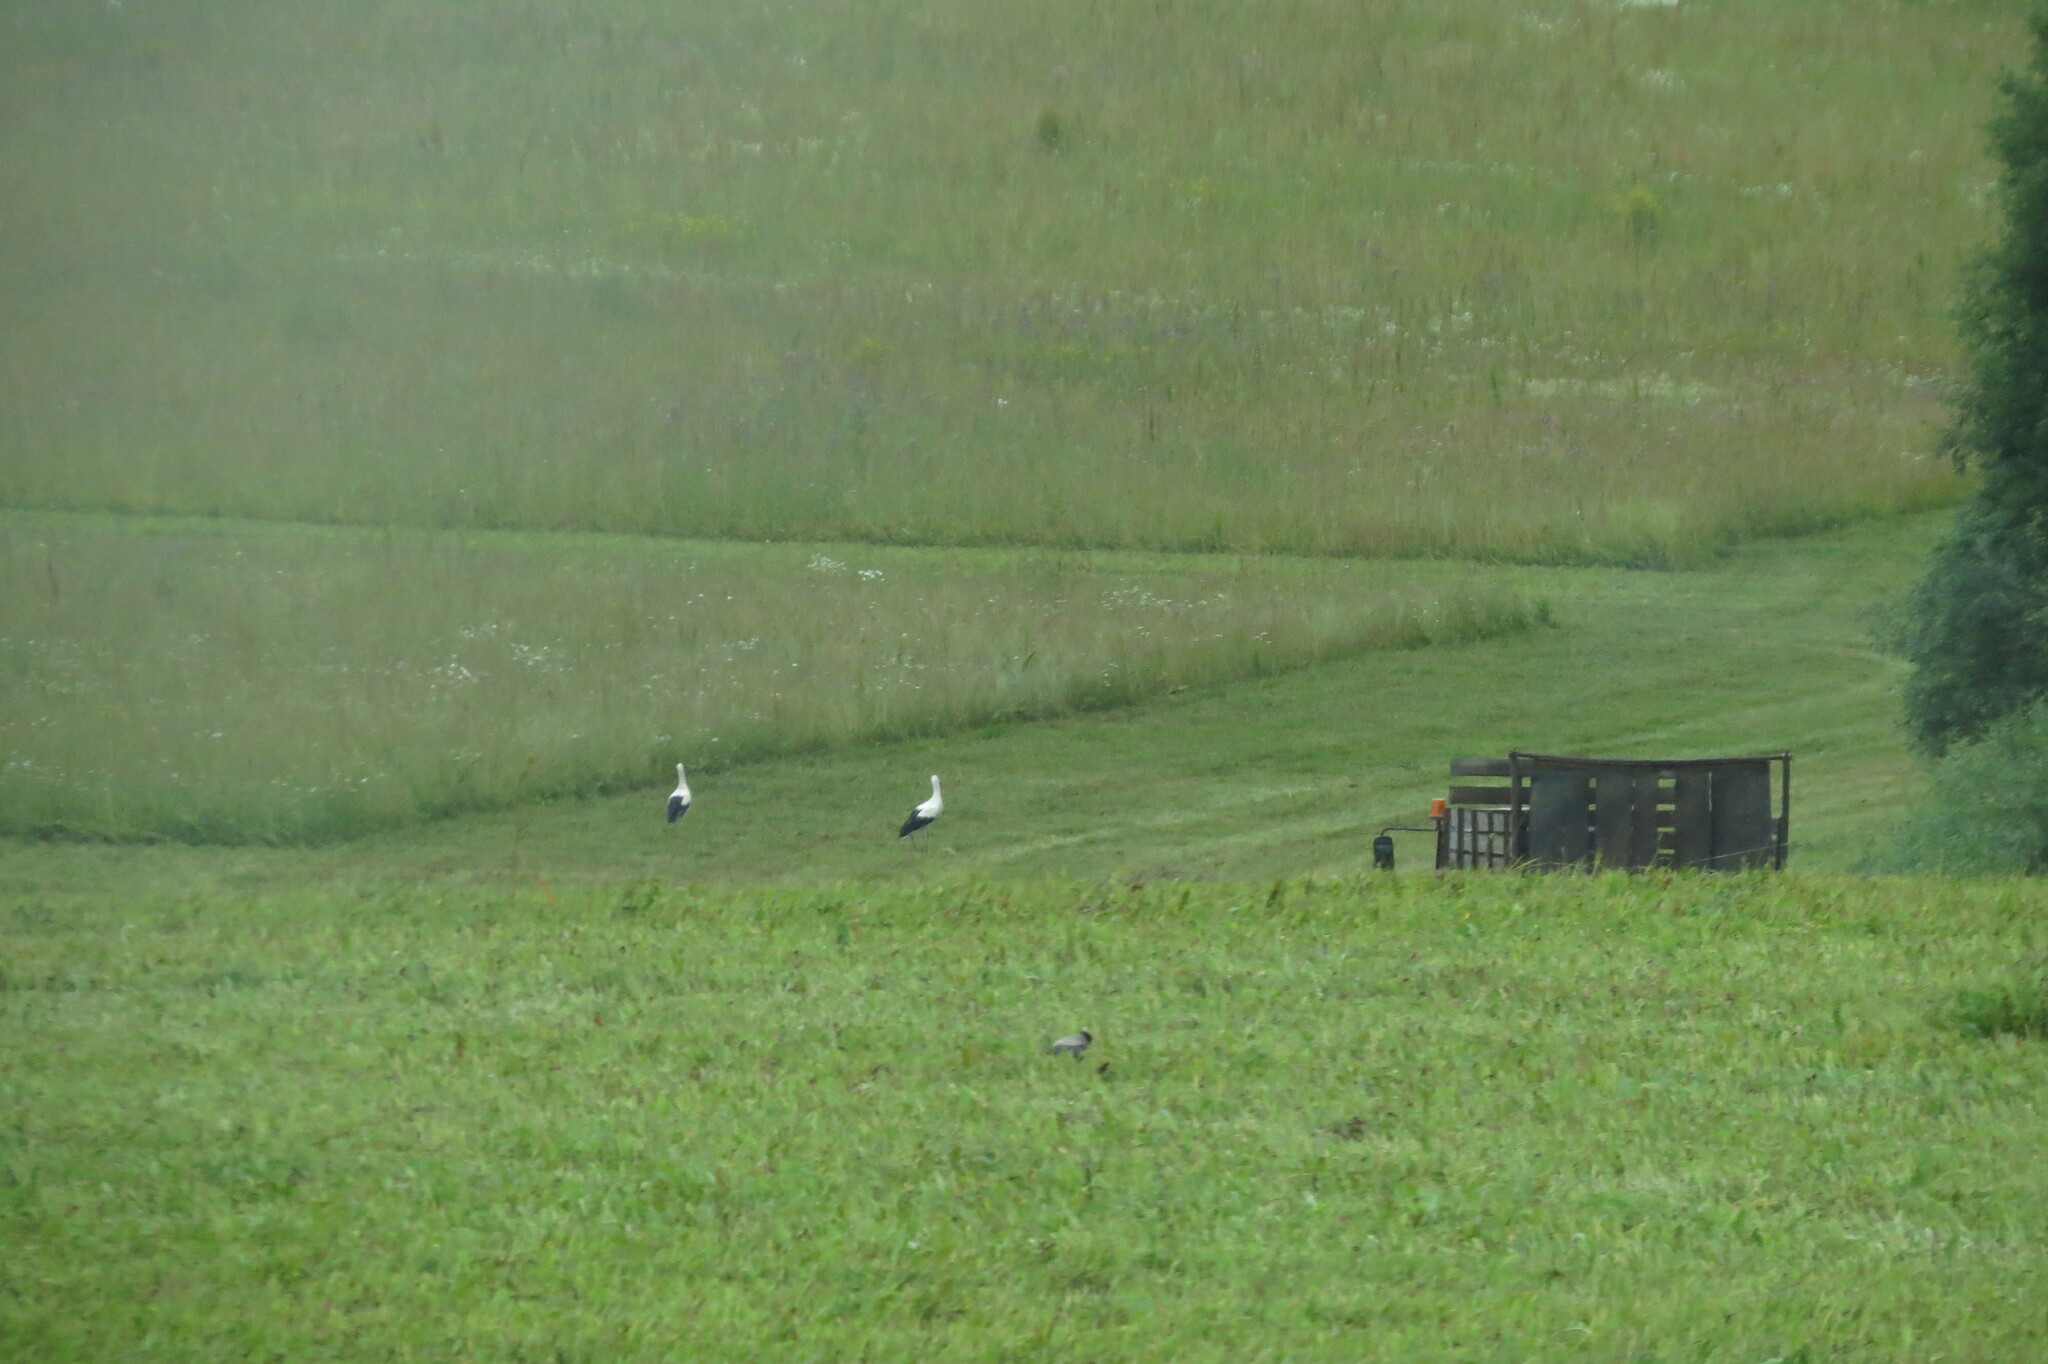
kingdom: Animalia
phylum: Chordata
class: Aves
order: Ciconiiformes
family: Ciconiidae
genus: Ciconia
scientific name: Ciconia ciconia
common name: White stork
